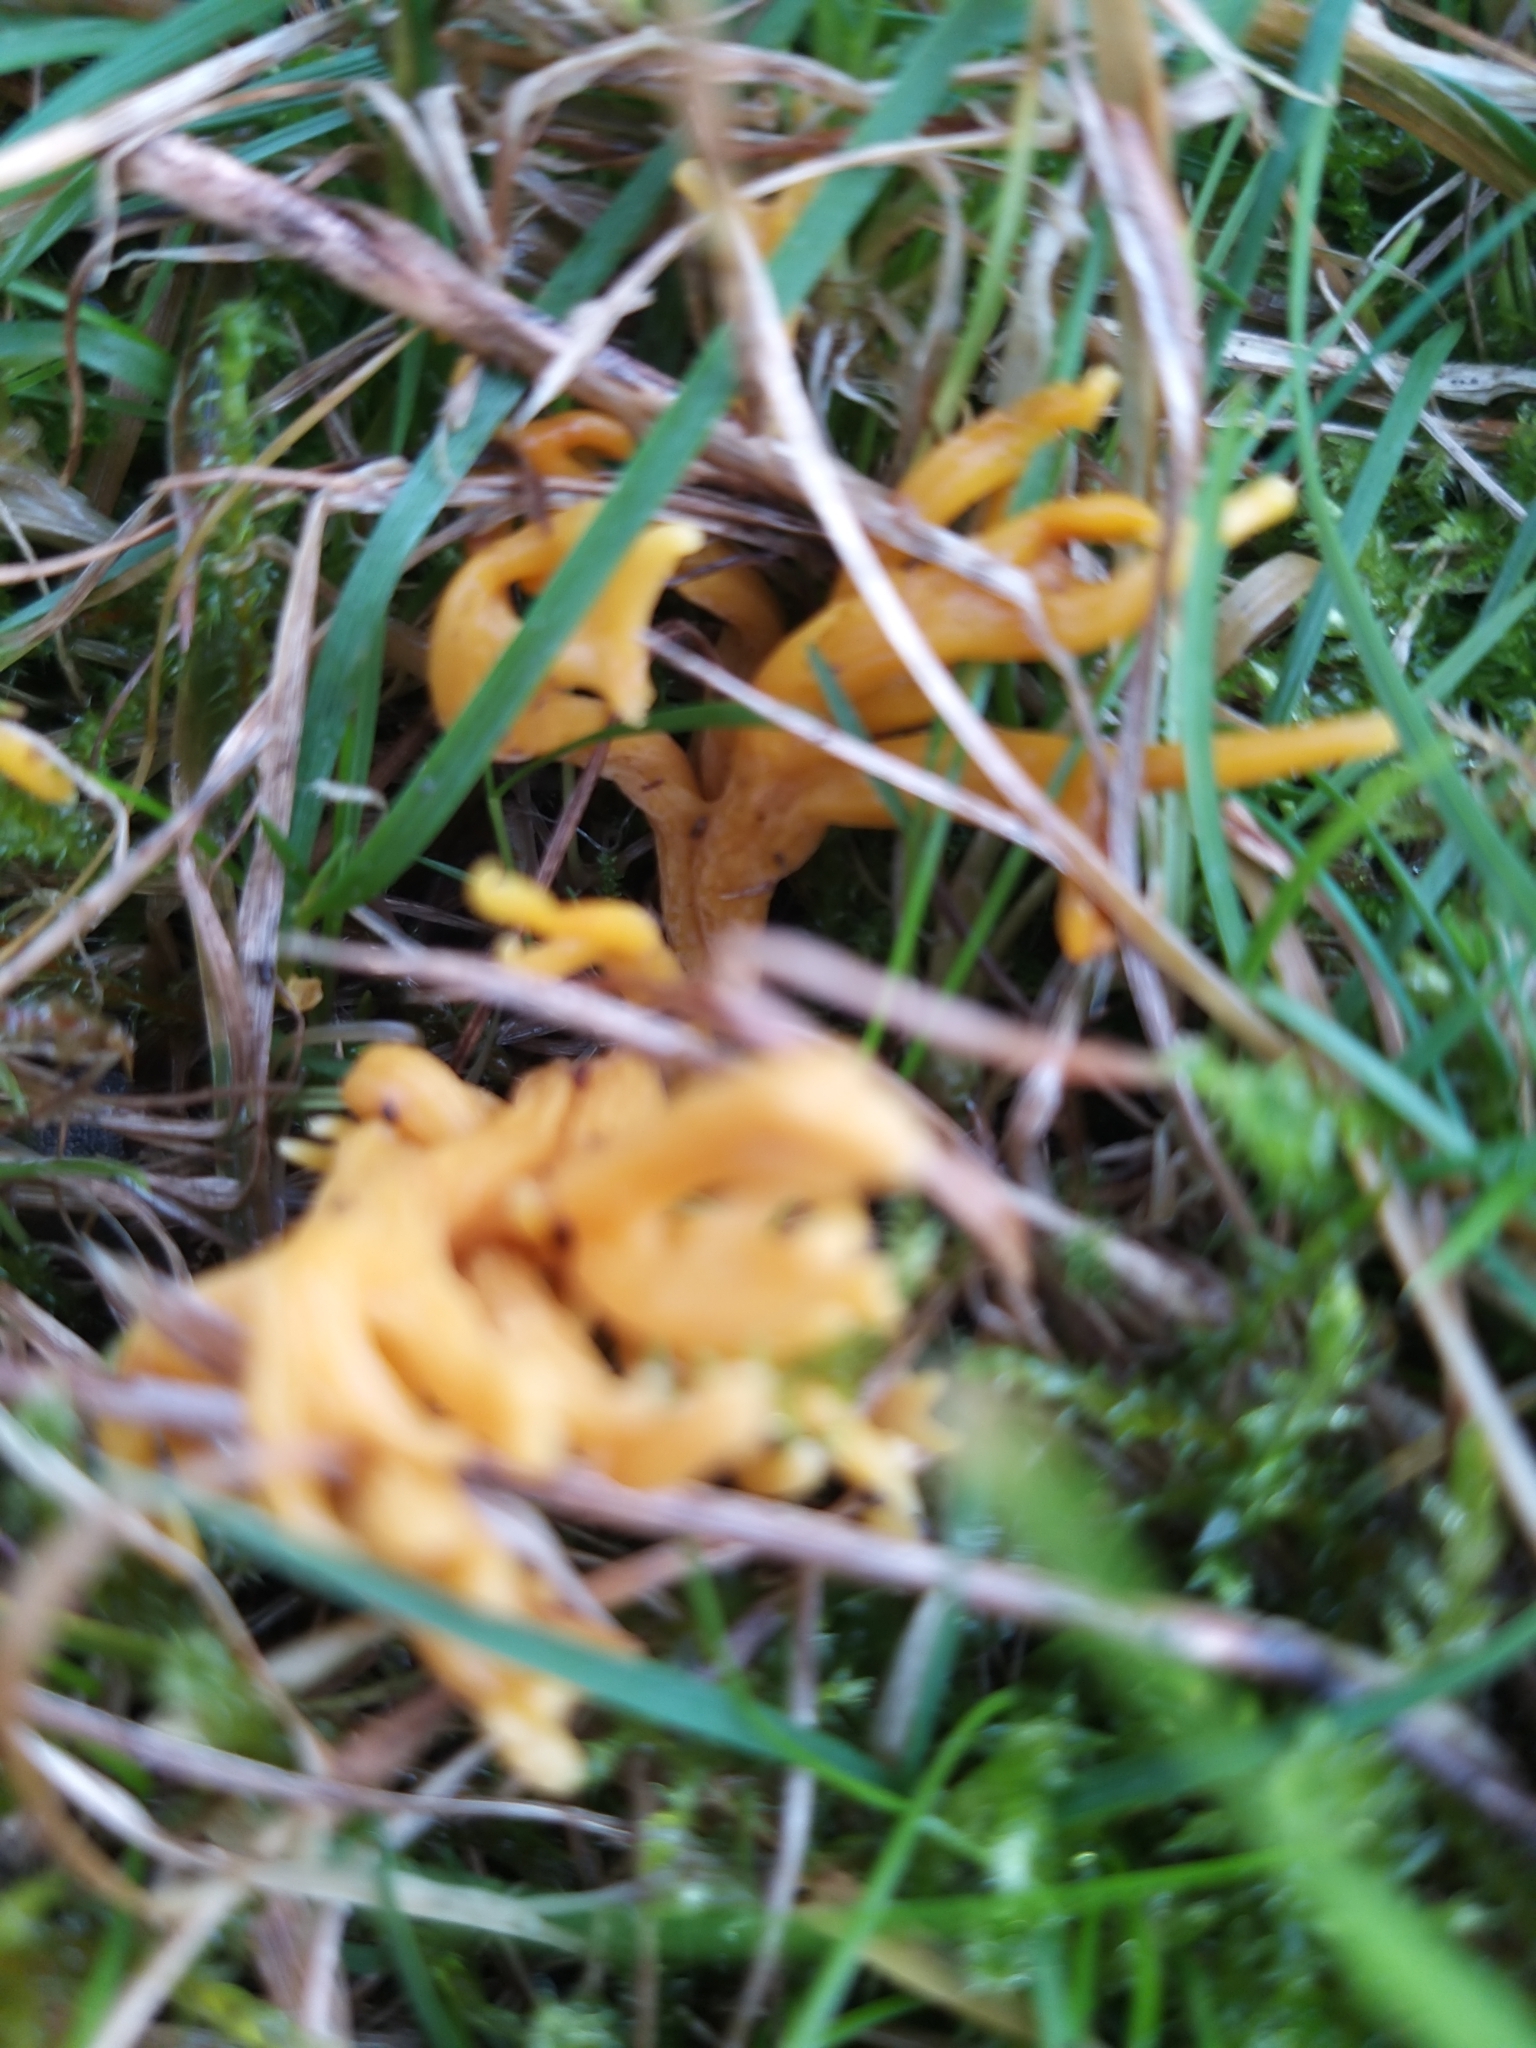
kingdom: Fungi
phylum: Basidiomycota
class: Agaricomycetes
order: Agaricales
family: Clavariaceae
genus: Clavulinopsis
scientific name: Clavulinopsis corniculata
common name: Meadow coral
